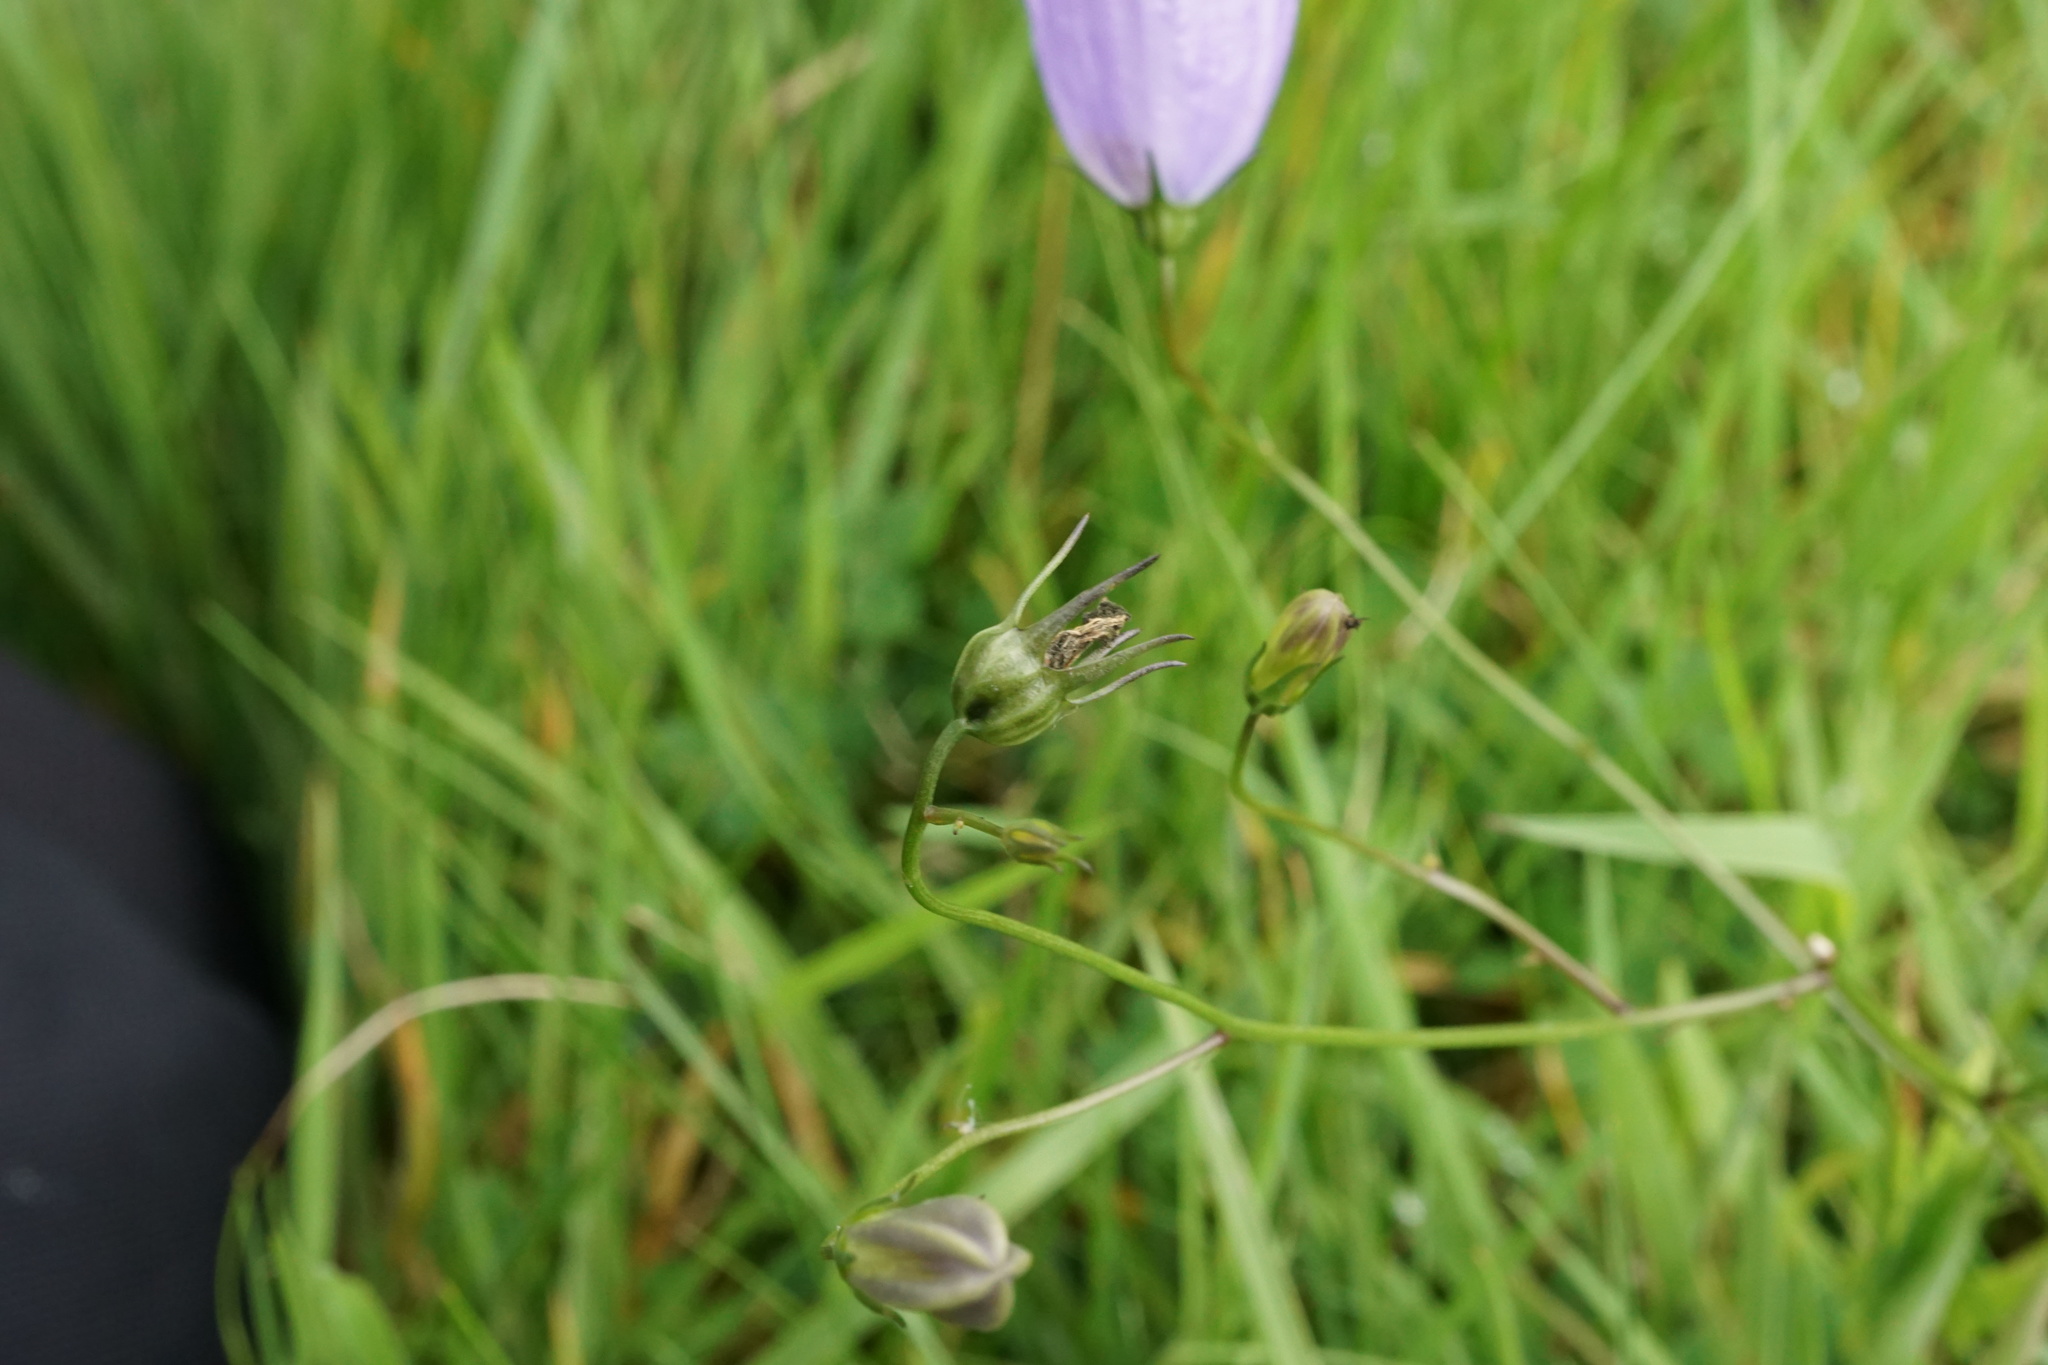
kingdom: Plantae
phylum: Tracheophyta
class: Magnoliopsida
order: Asterales
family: Campanulaceae
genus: Campanula
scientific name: Campanula rotundifolia
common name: Harebell
